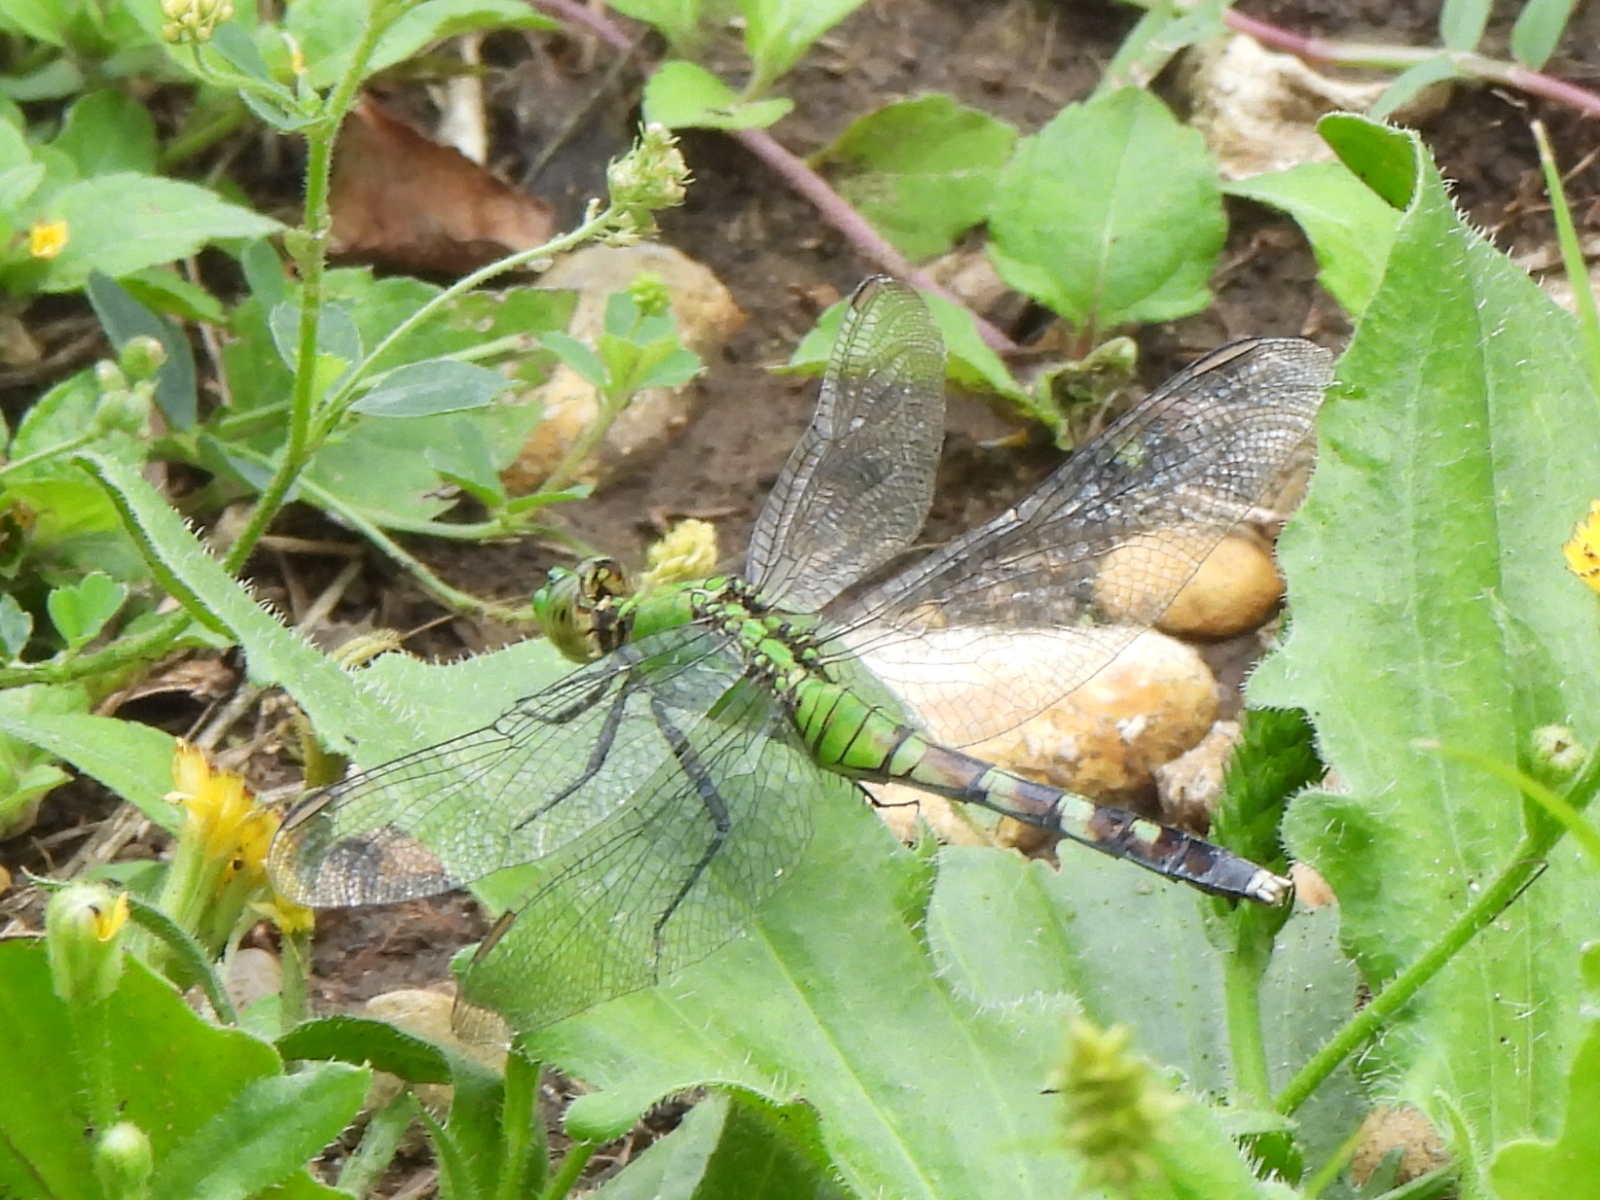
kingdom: Animalia
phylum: Arthropoda
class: Insecta
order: Odonata
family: Libellulidae
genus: Erythemis
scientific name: Erythemis simplicicollis
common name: Eastern pondhawk
